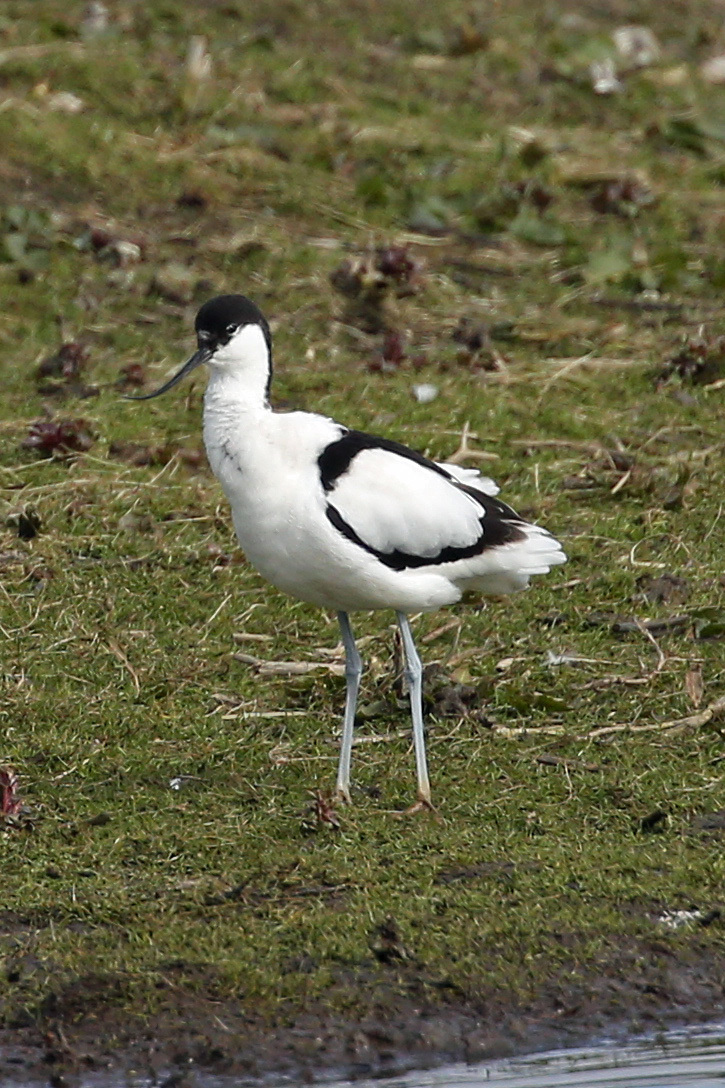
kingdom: Animalia
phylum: Chordata
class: Aves
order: Charadriiformes
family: Recurvirostridae
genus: Recurvirostra
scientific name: Recurvirostra avosetta
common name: Pied avocet
